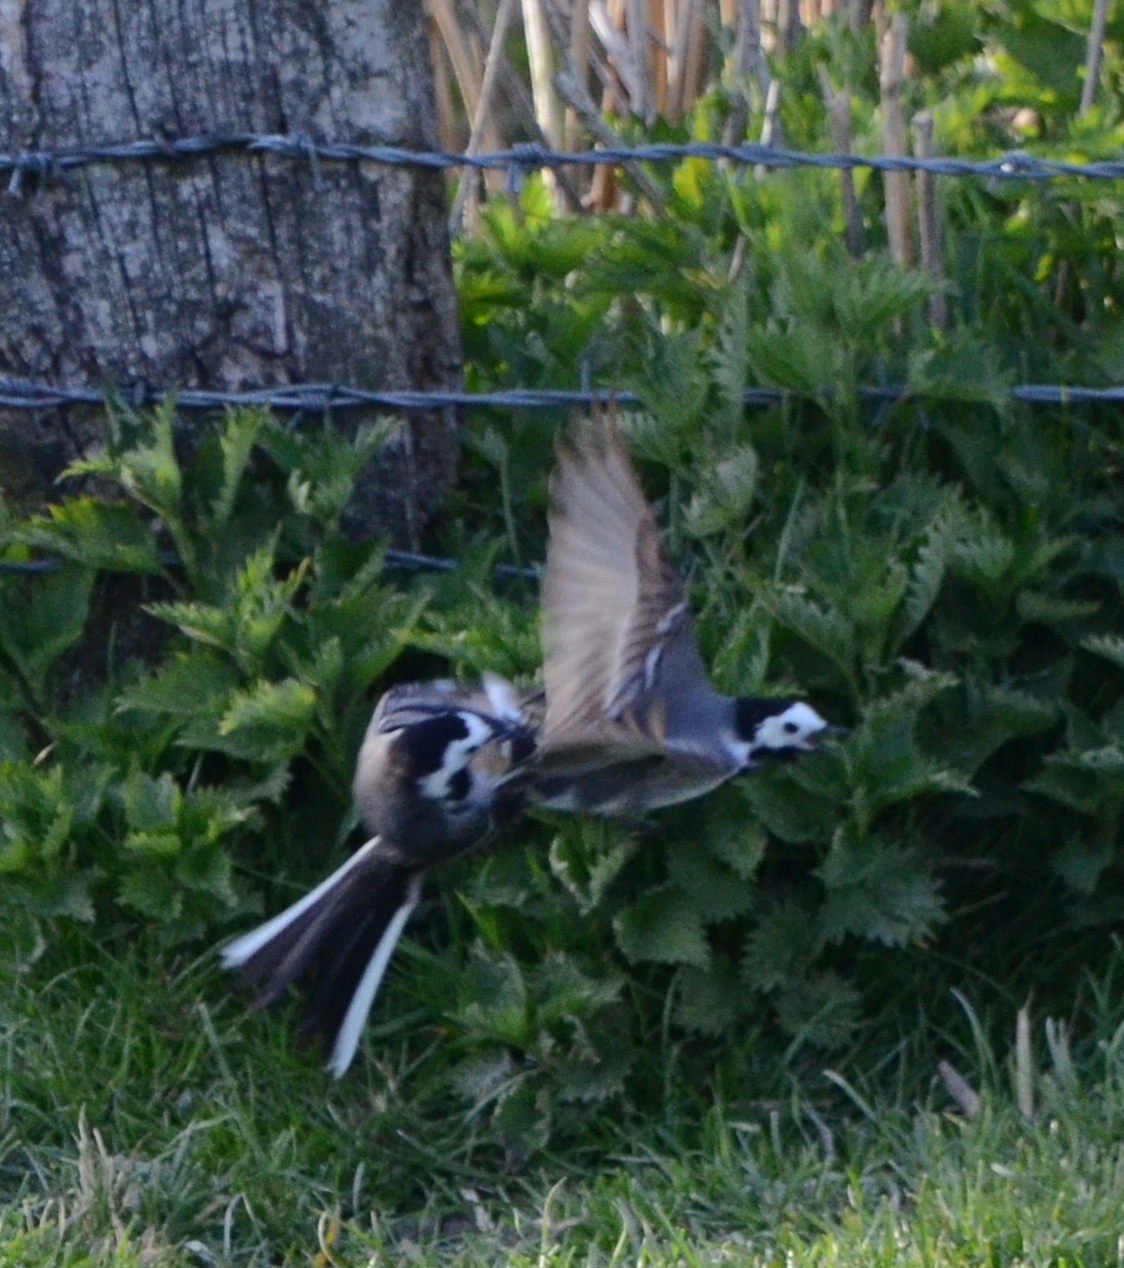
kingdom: Animalia
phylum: Chordata
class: Aves
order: Passeriformes
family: Motacillidae
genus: Motacilla
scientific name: Motacilla alba
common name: White wagtail
